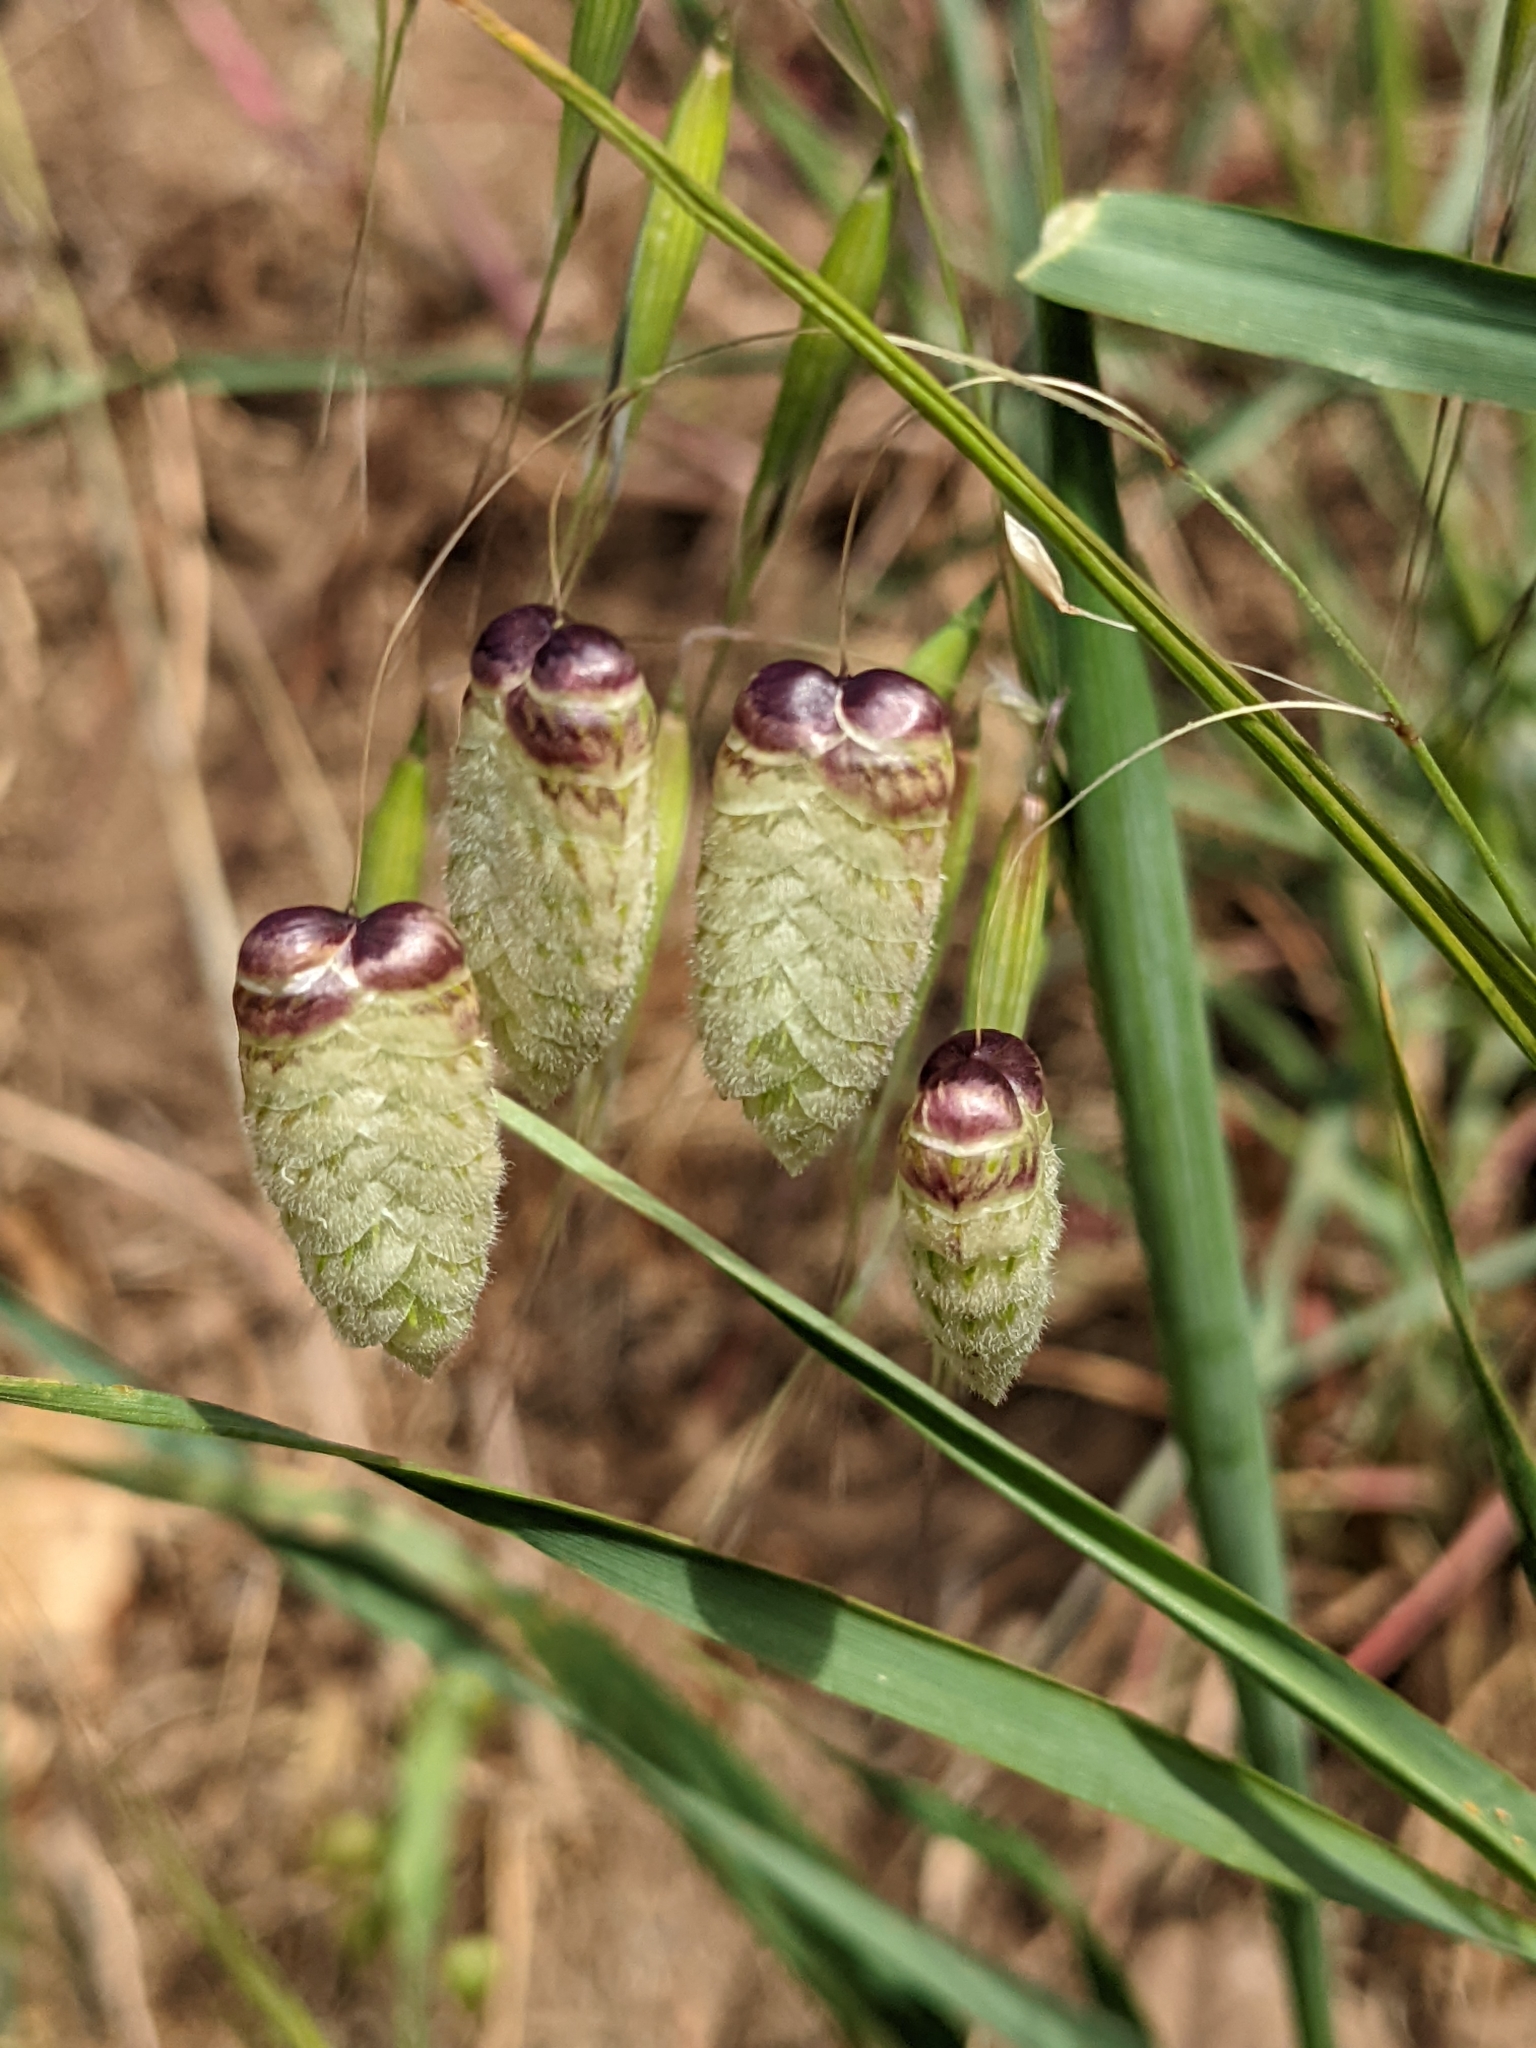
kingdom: Plantae
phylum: Tracheophyta
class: Liliopsida
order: Poales
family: Poaceae
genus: Briza
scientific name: Briza maxima
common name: Big quakinggrass
